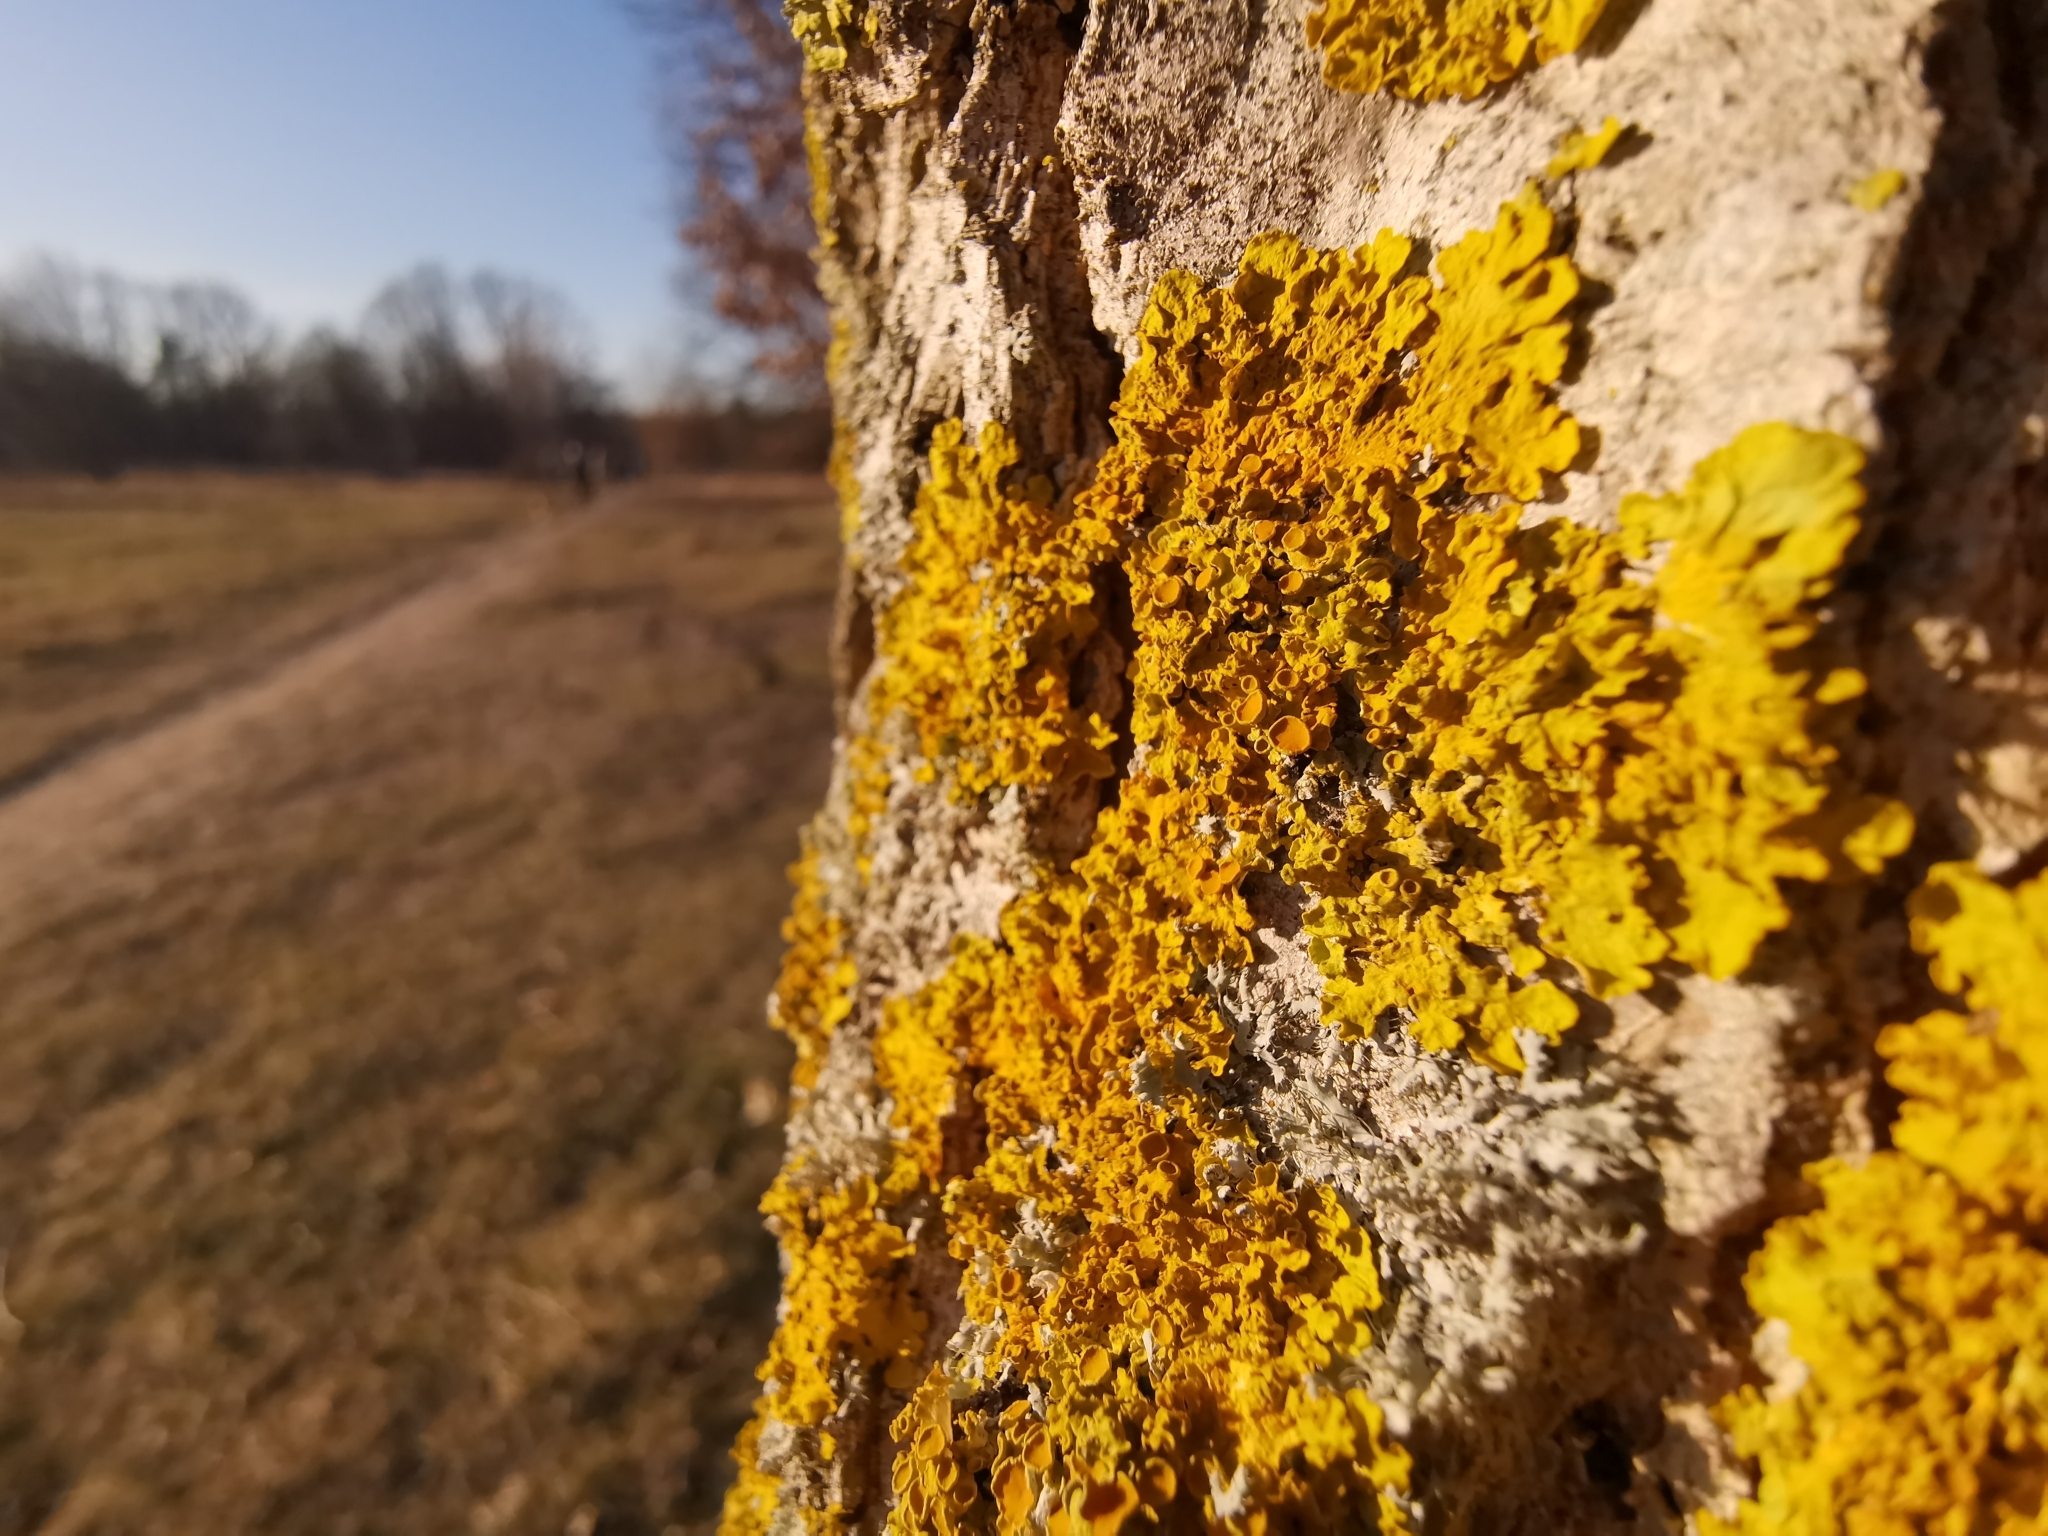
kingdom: Fungi
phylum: Ascomycota
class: Lecanoromycetes
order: Teloschistales
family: Teloschistaceae
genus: Xanthoria
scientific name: Xanthoria parietina
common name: Common orange lichen
